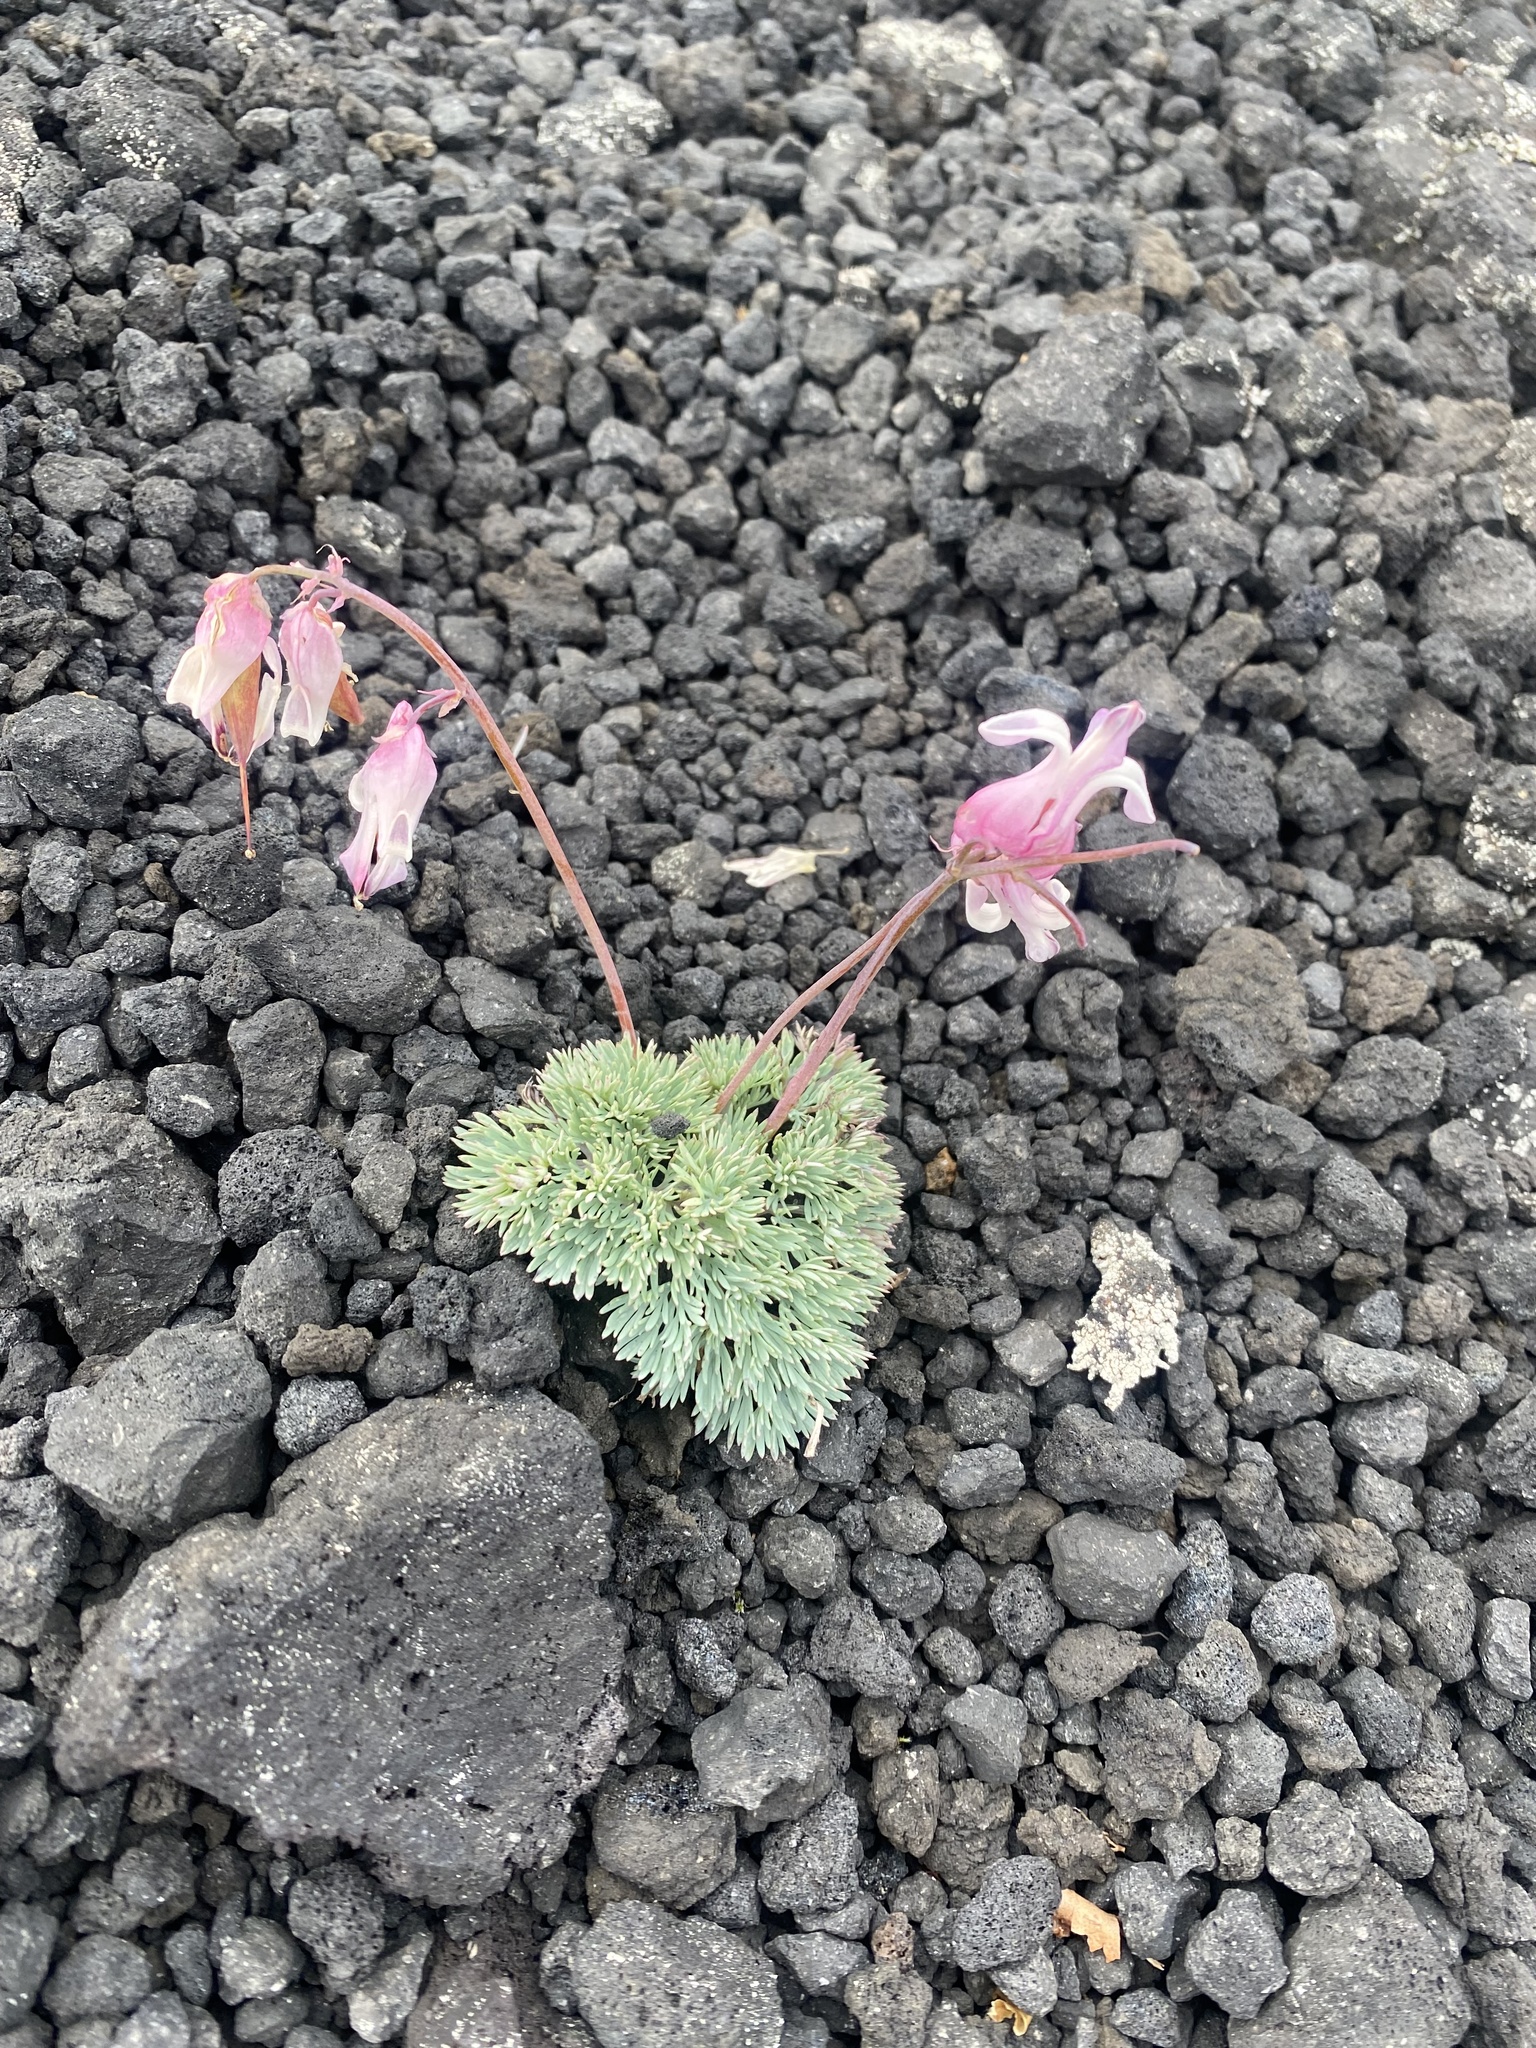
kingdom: Plantae
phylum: Tracheophyta
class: Magnoliopsida
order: Ranunculales
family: Papaveraceae
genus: Dicentra
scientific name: Dicentra peregrina
